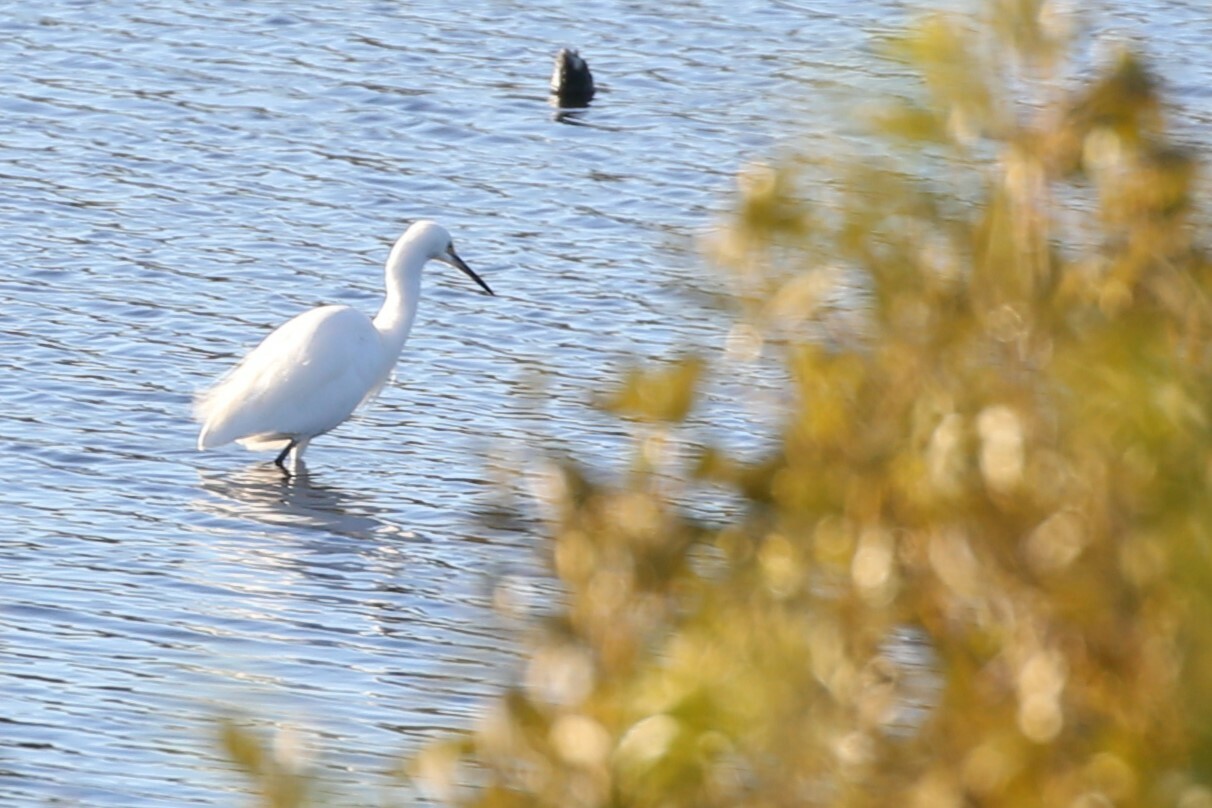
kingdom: Animalia
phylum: Chordata
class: Aves
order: Pelecaniformes
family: Ardeidae
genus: Egretta
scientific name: Egretta garzetta
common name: Little egret
